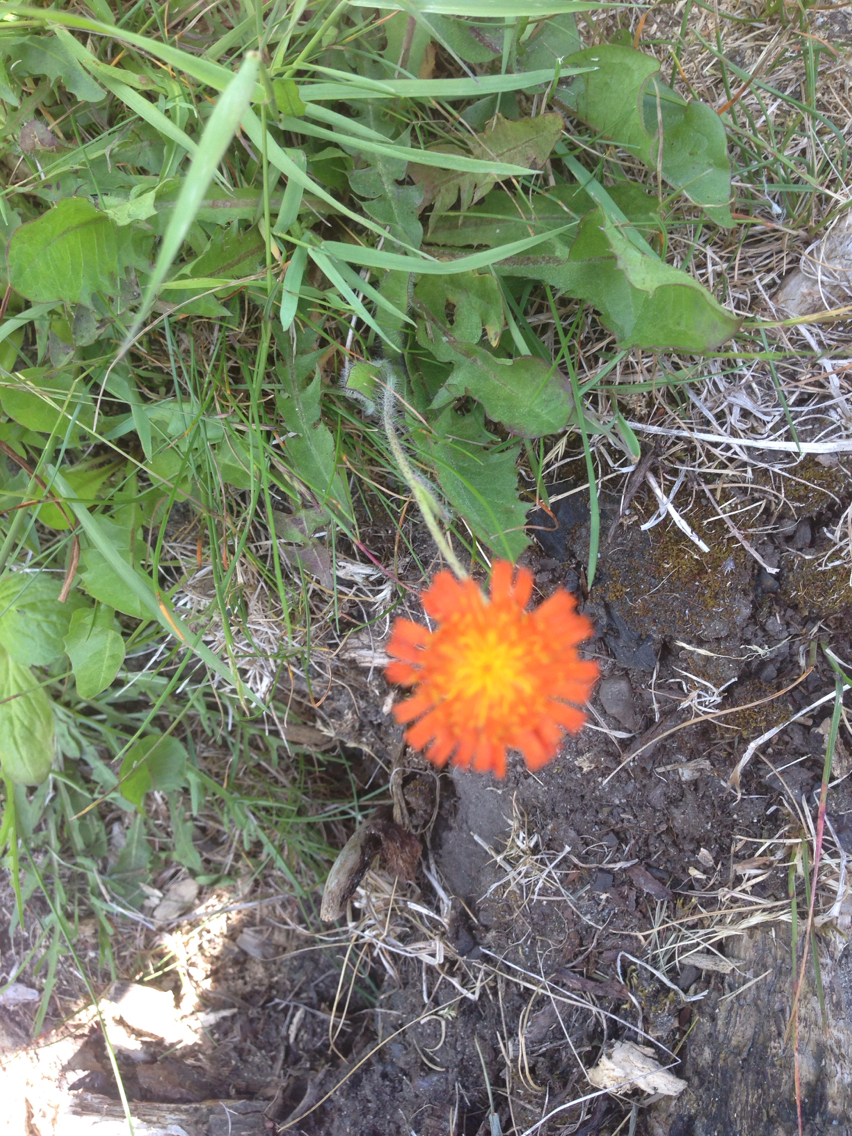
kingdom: Plantae
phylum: Tracheophyta
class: Magnoliopsida
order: Asterales
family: Asteraceae
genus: Pilosella
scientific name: Pilosella aurantiaca
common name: Fox-and-cubs
